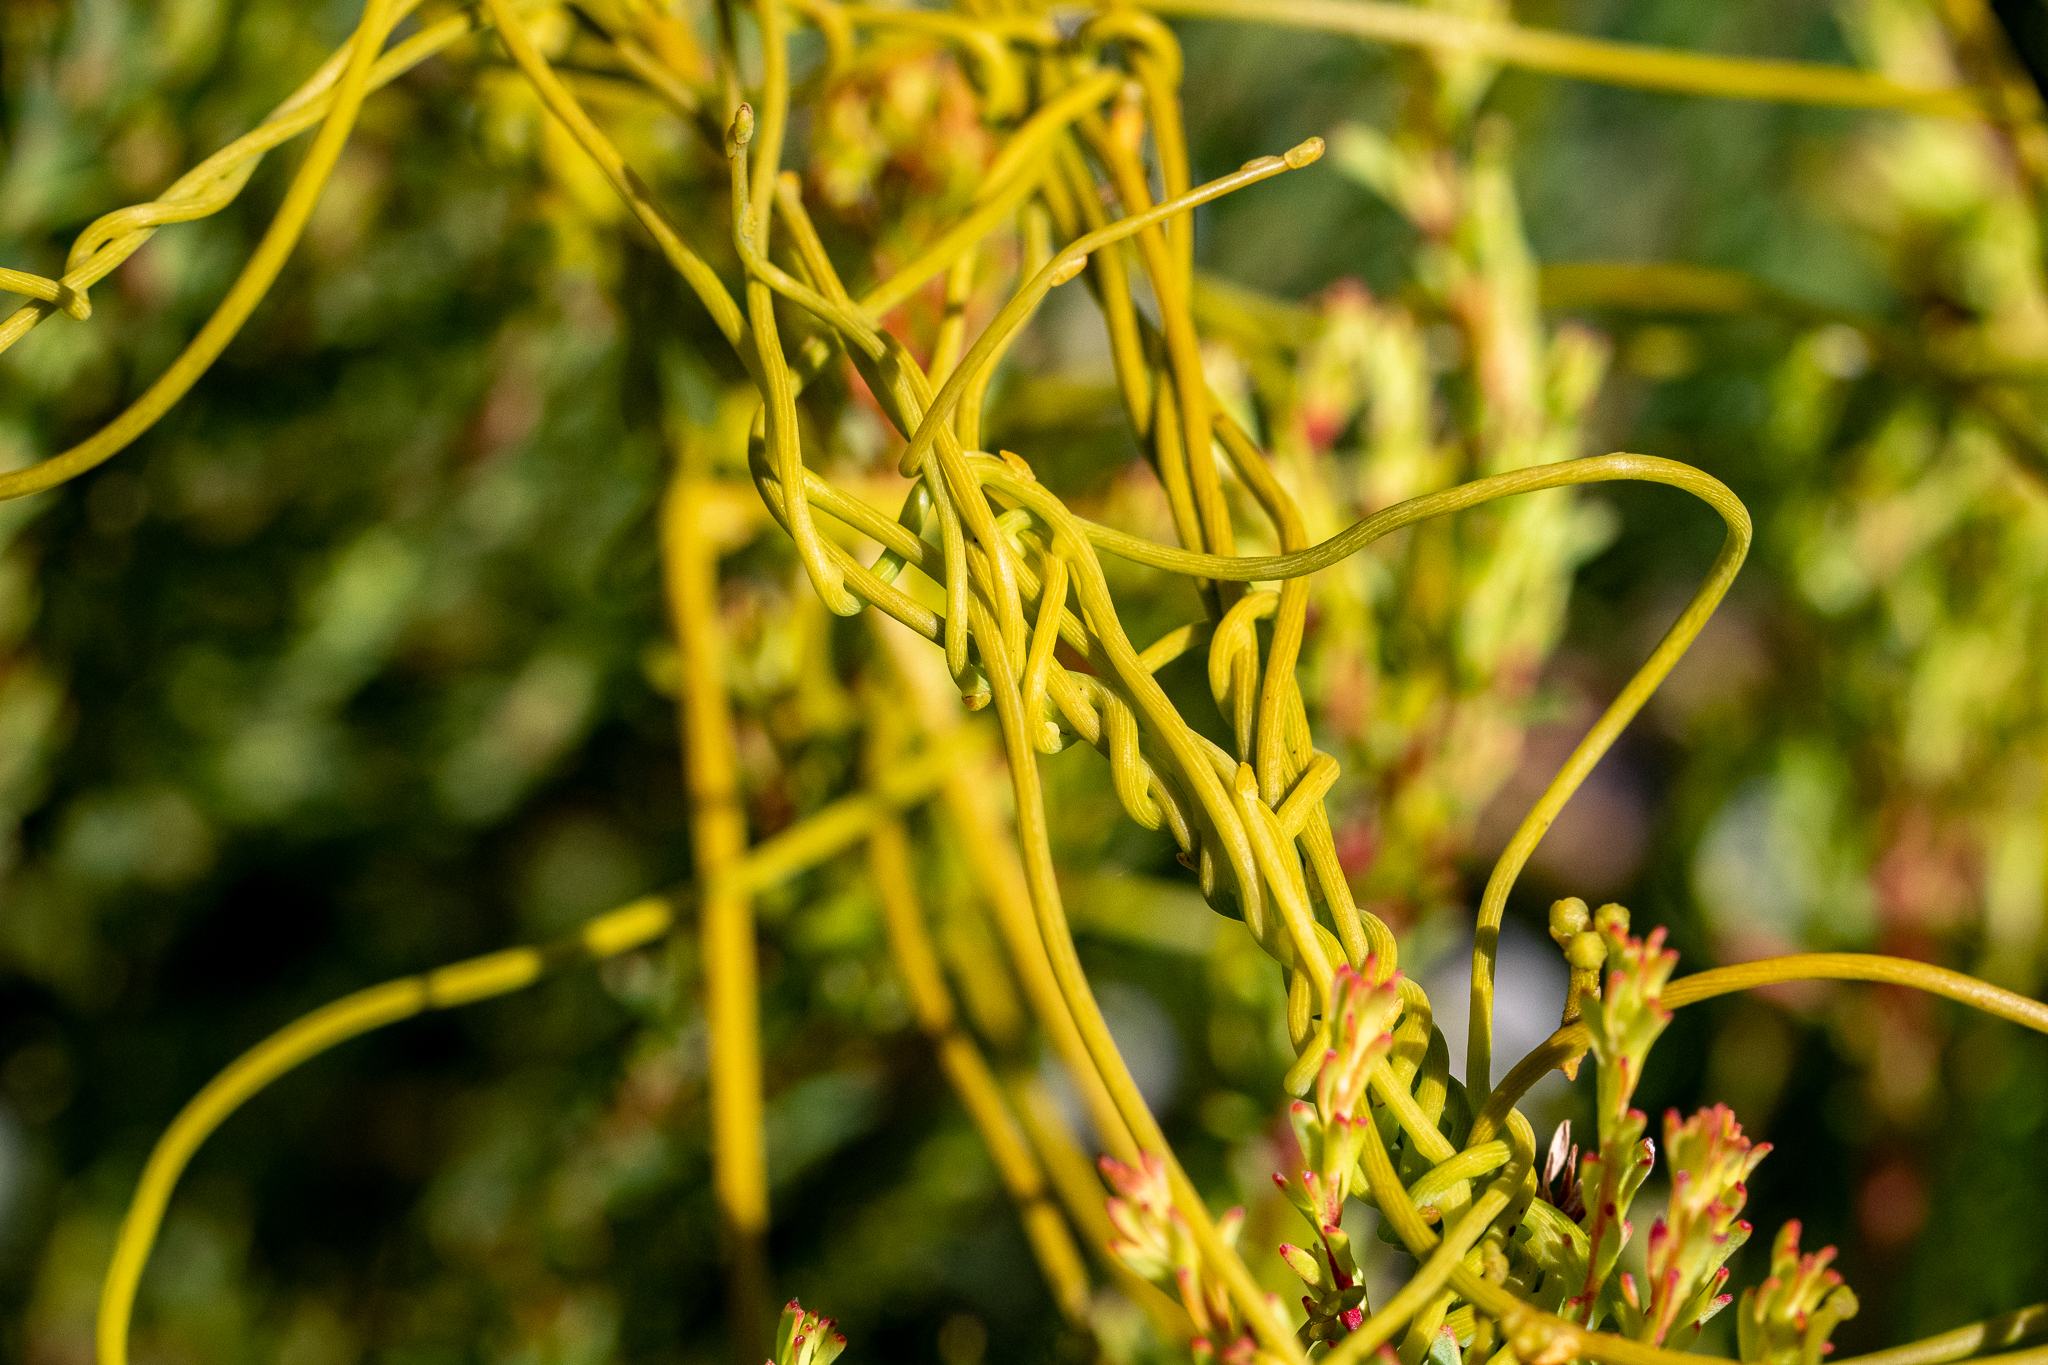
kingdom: Plantae
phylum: Tracheophyta
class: Magnoliopsida
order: Laurales
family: Lauraceae
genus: Cassytha
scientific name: Cassytha ciliolata
